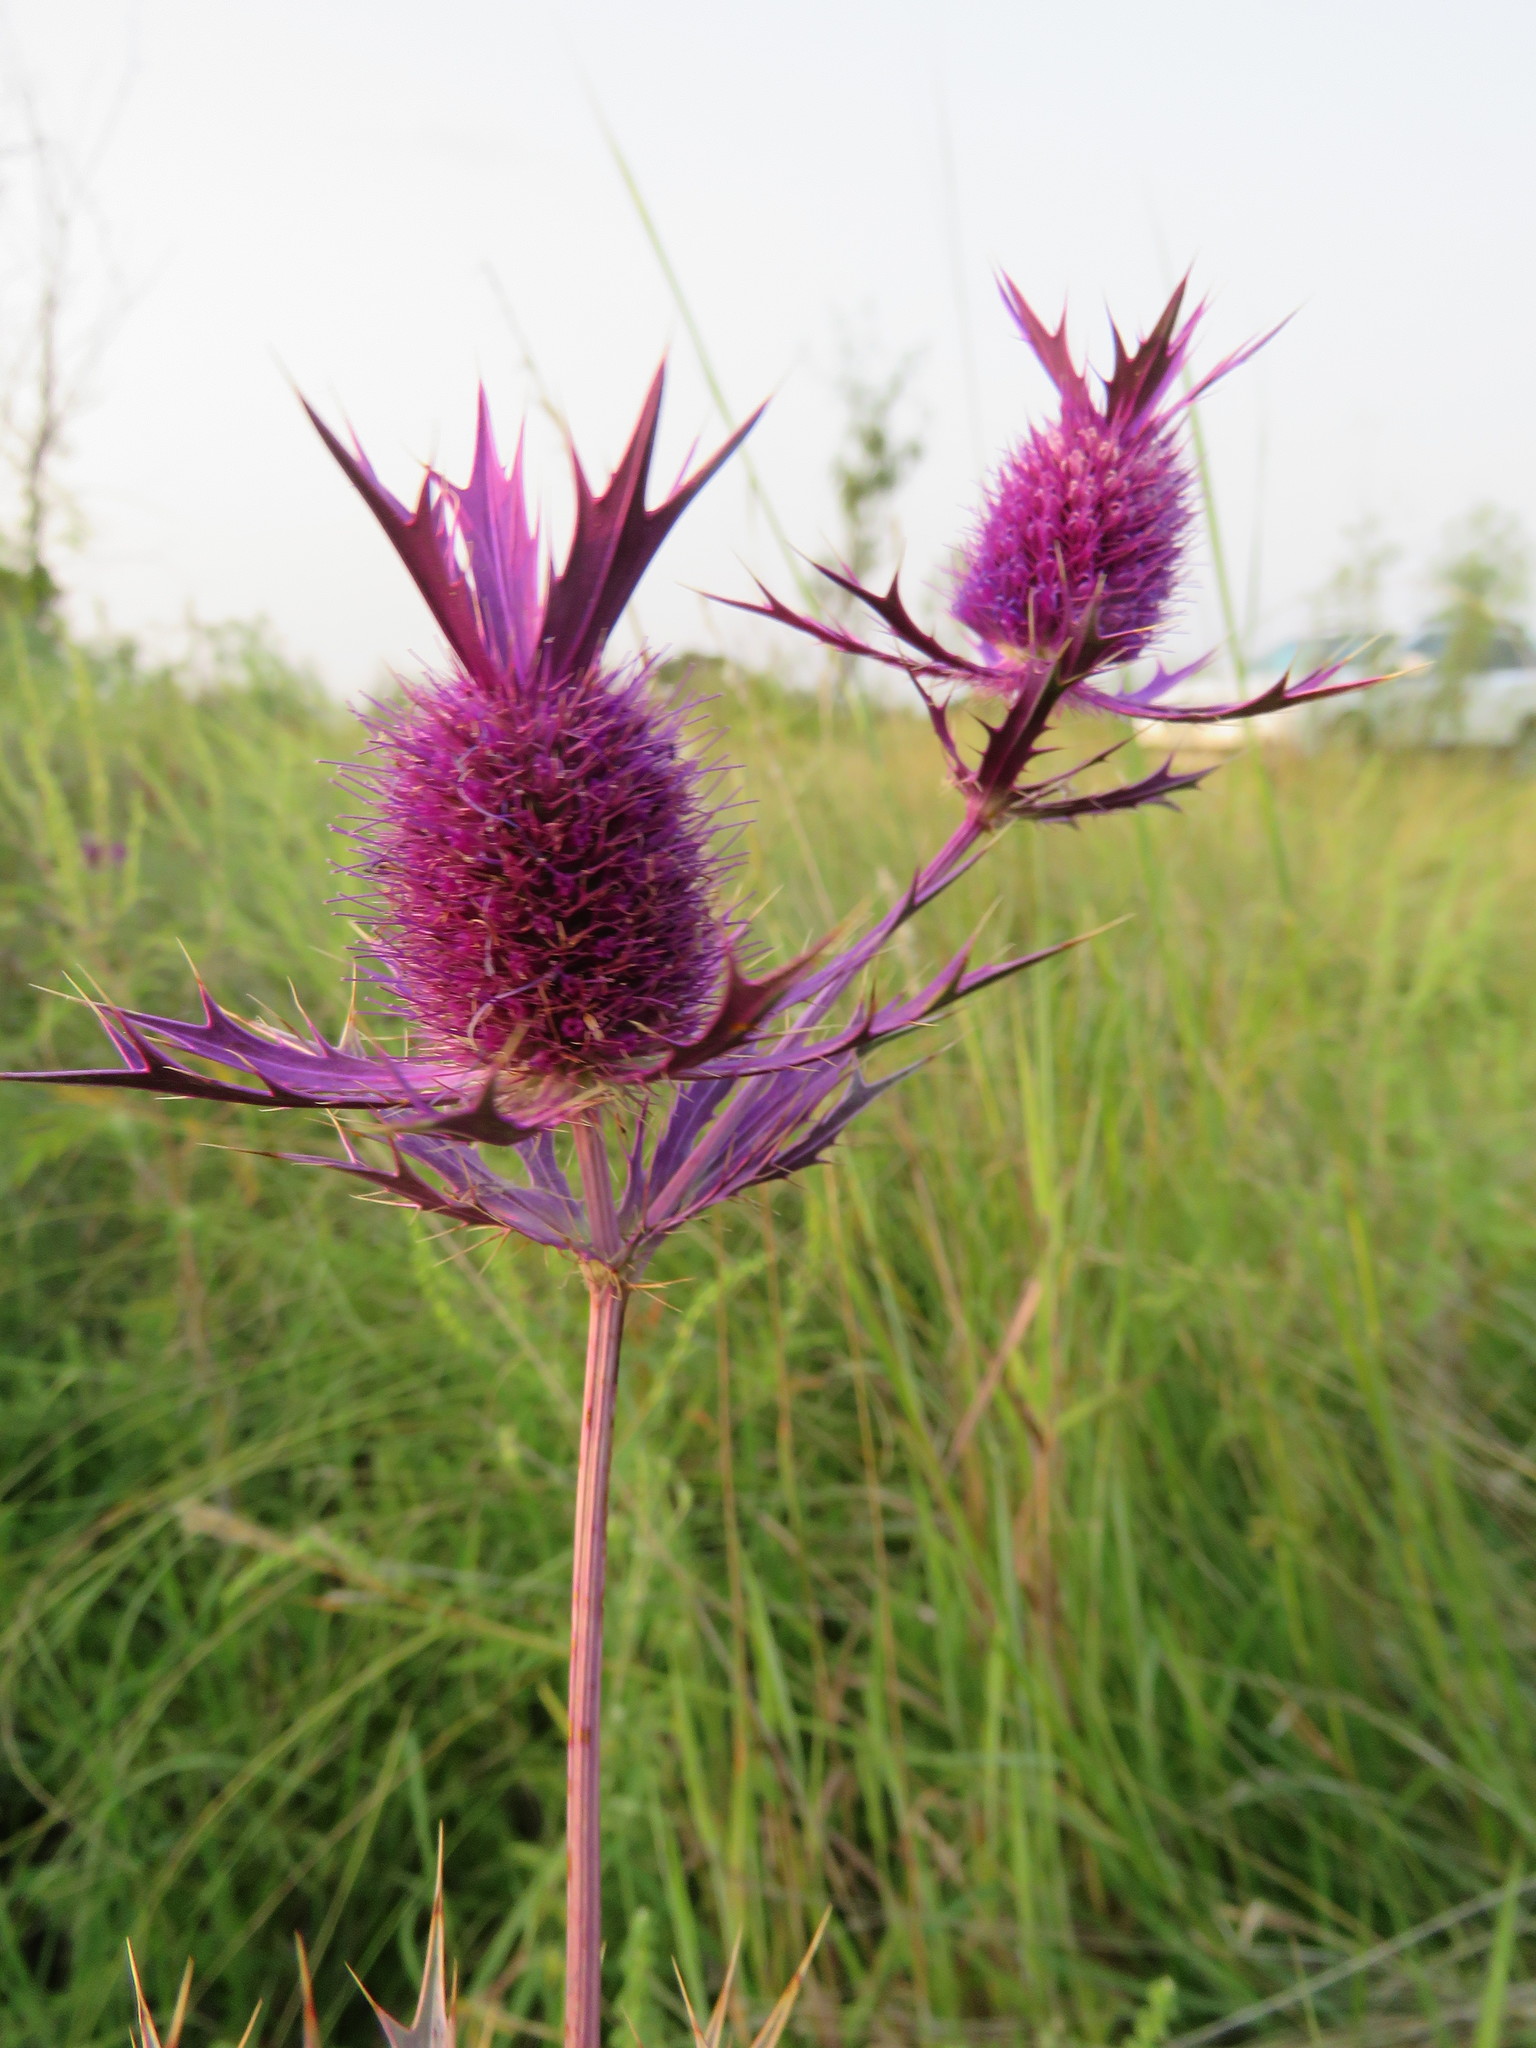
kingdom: Plantae
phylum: Tracheophyta
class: Magnoliopsida
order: Apiales
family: Apiaceae
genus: Eryngium
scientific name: Eryngium leavenworthii
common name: Leavenworth's eryngo
